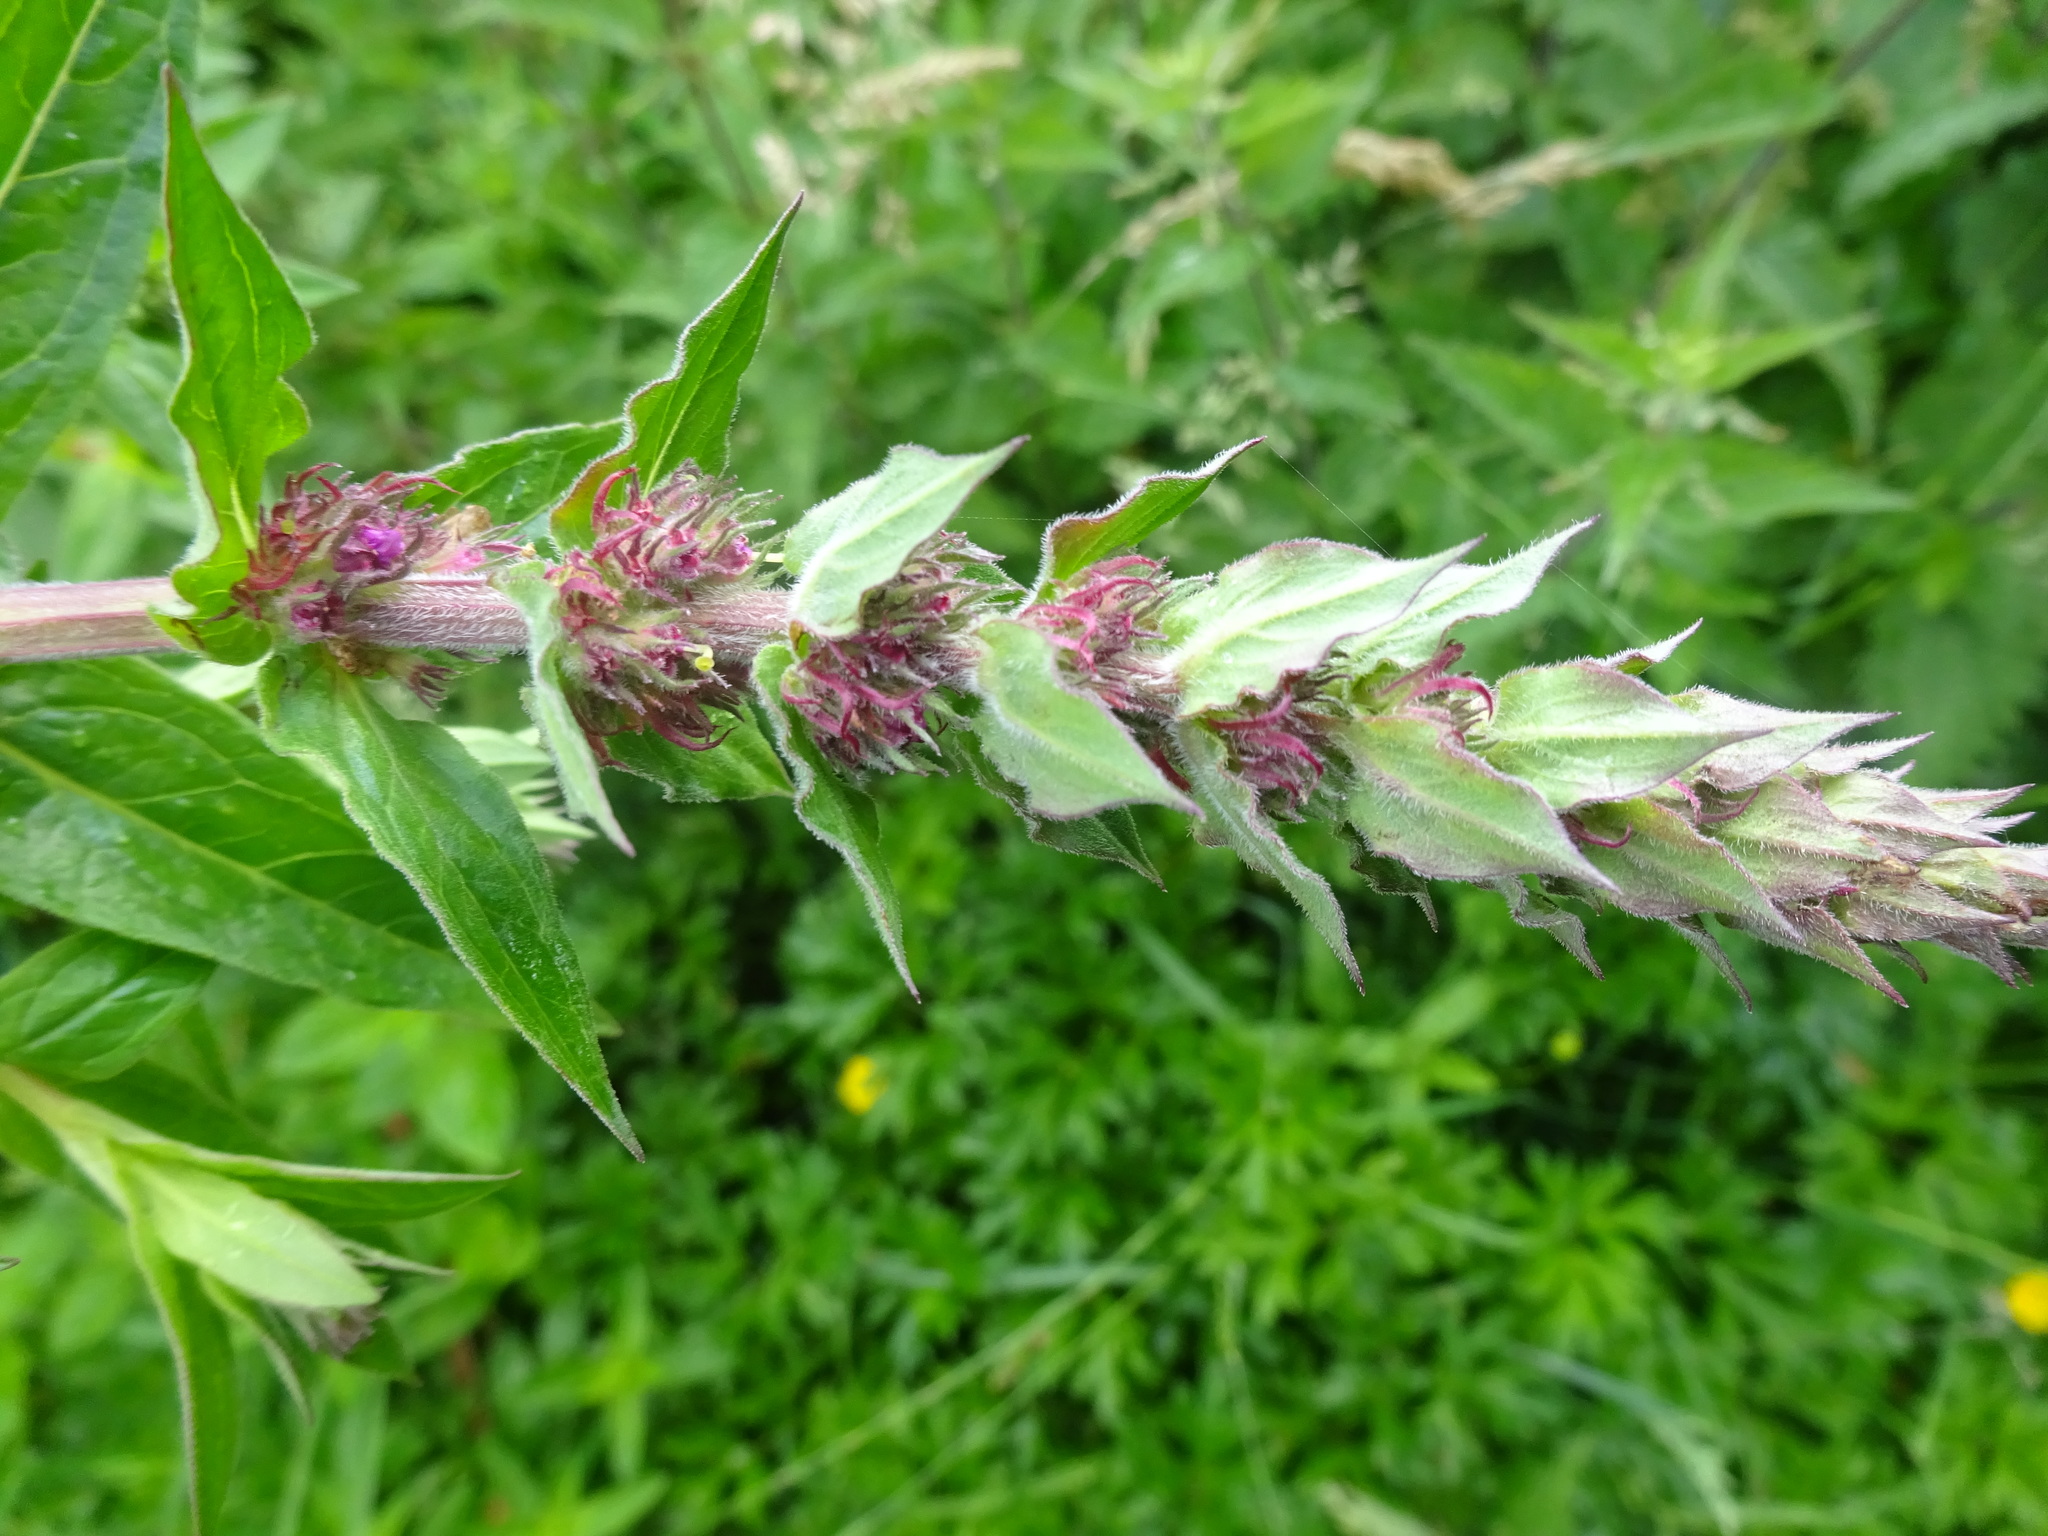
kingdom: Plantae
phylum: Tracheophyta
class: Magnoliopsida
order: Myrtales
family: Lythraceae
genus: Lythrum
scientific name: Lythrum salicaria
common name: Purple loosestrife
